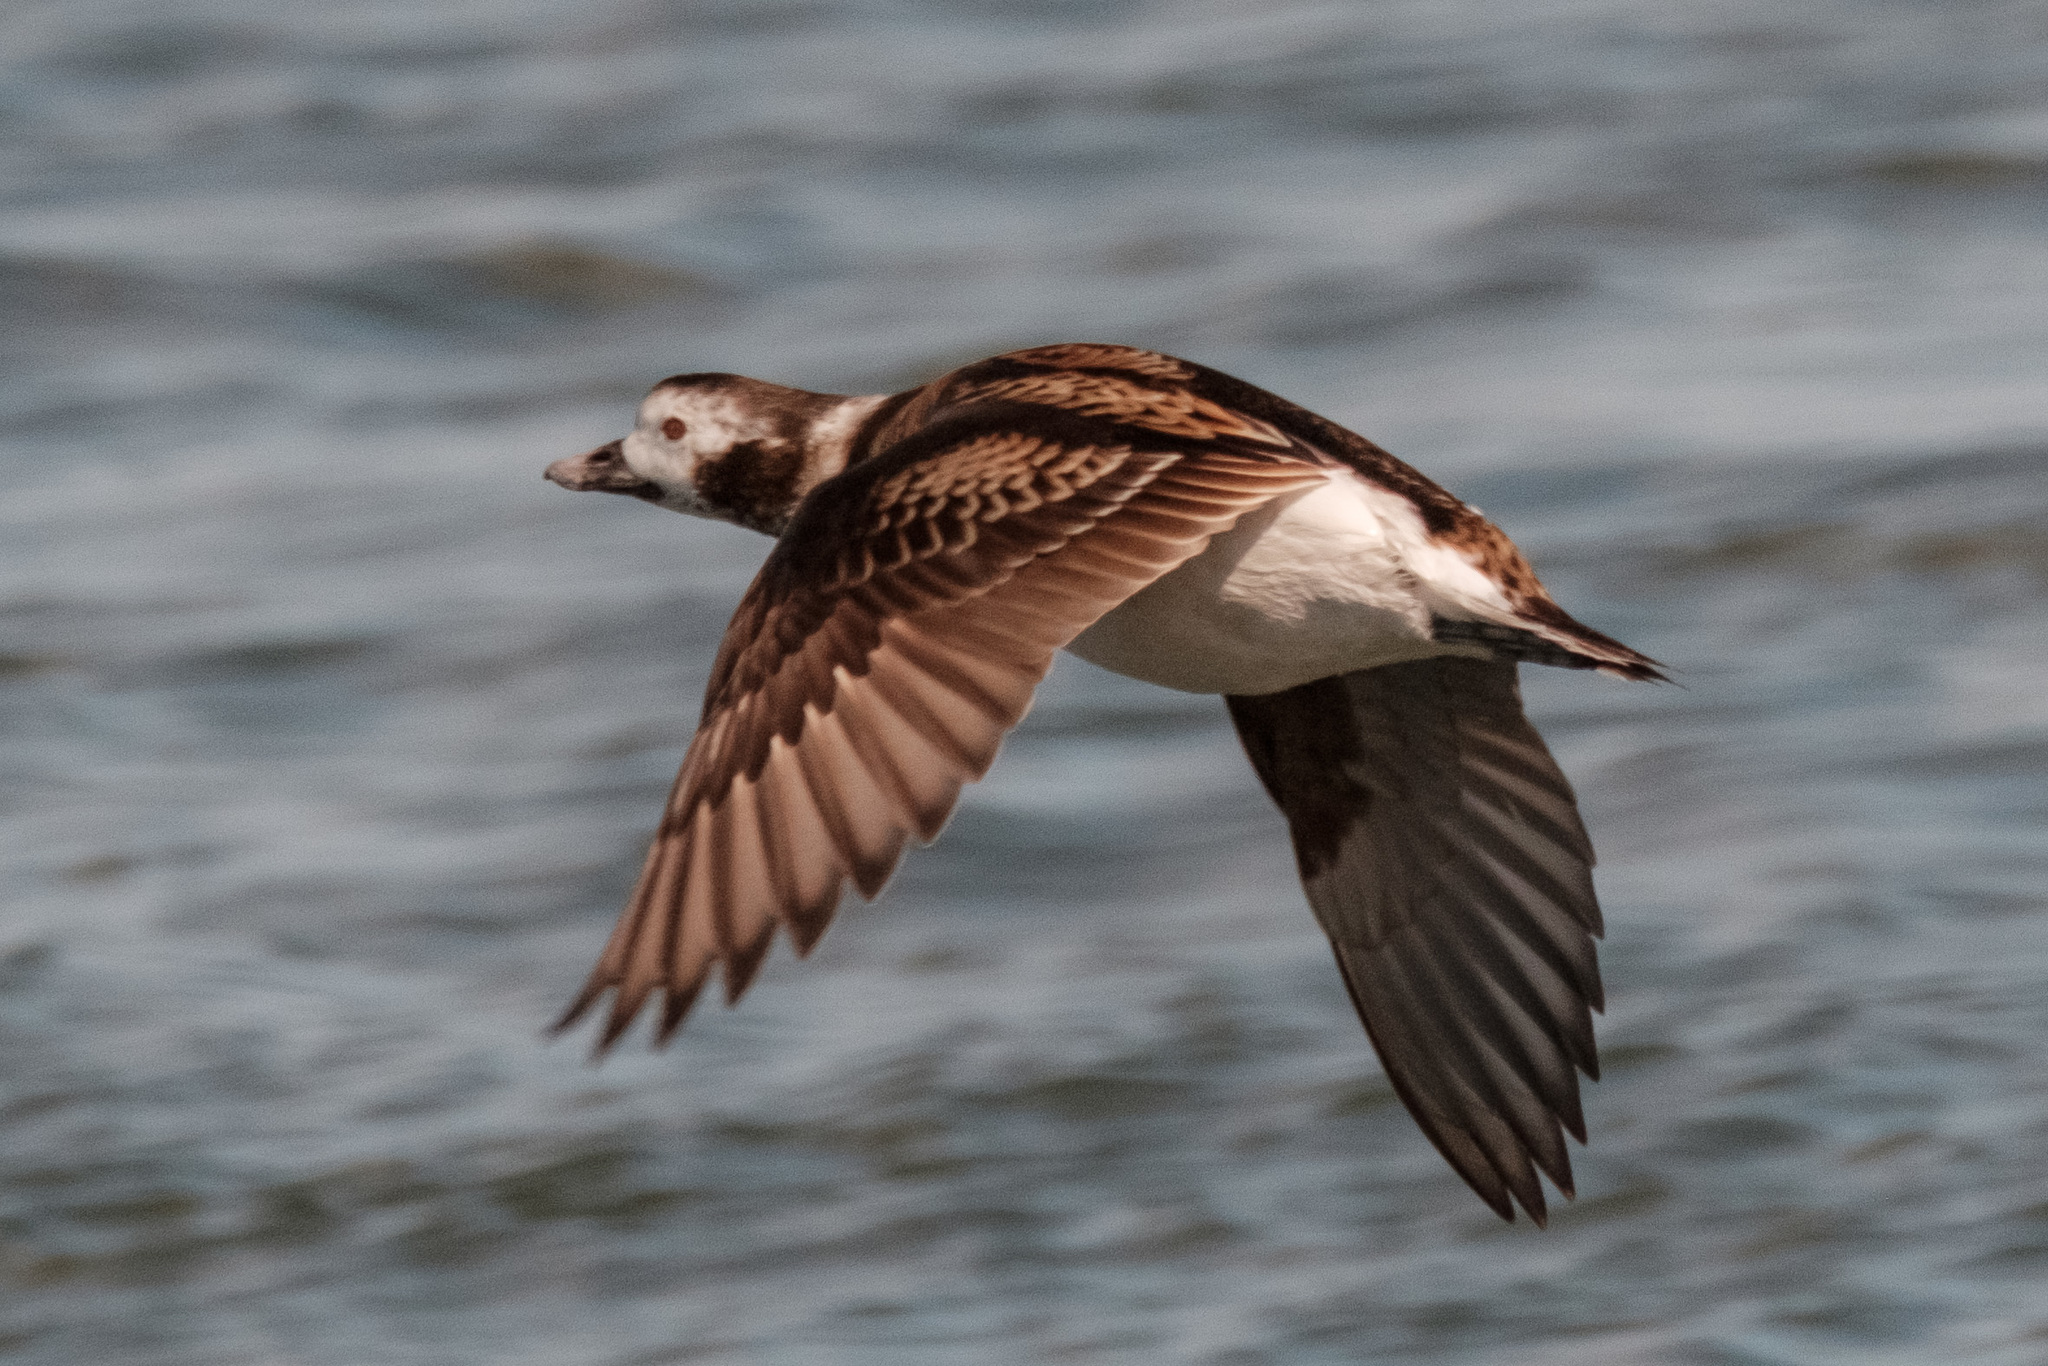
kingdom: Animalia
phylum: Chordata
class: Aves
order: Anseriformes
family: Anatidae
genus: Clangula
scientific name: Clangula hyemalis
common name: Long-tailed duck
